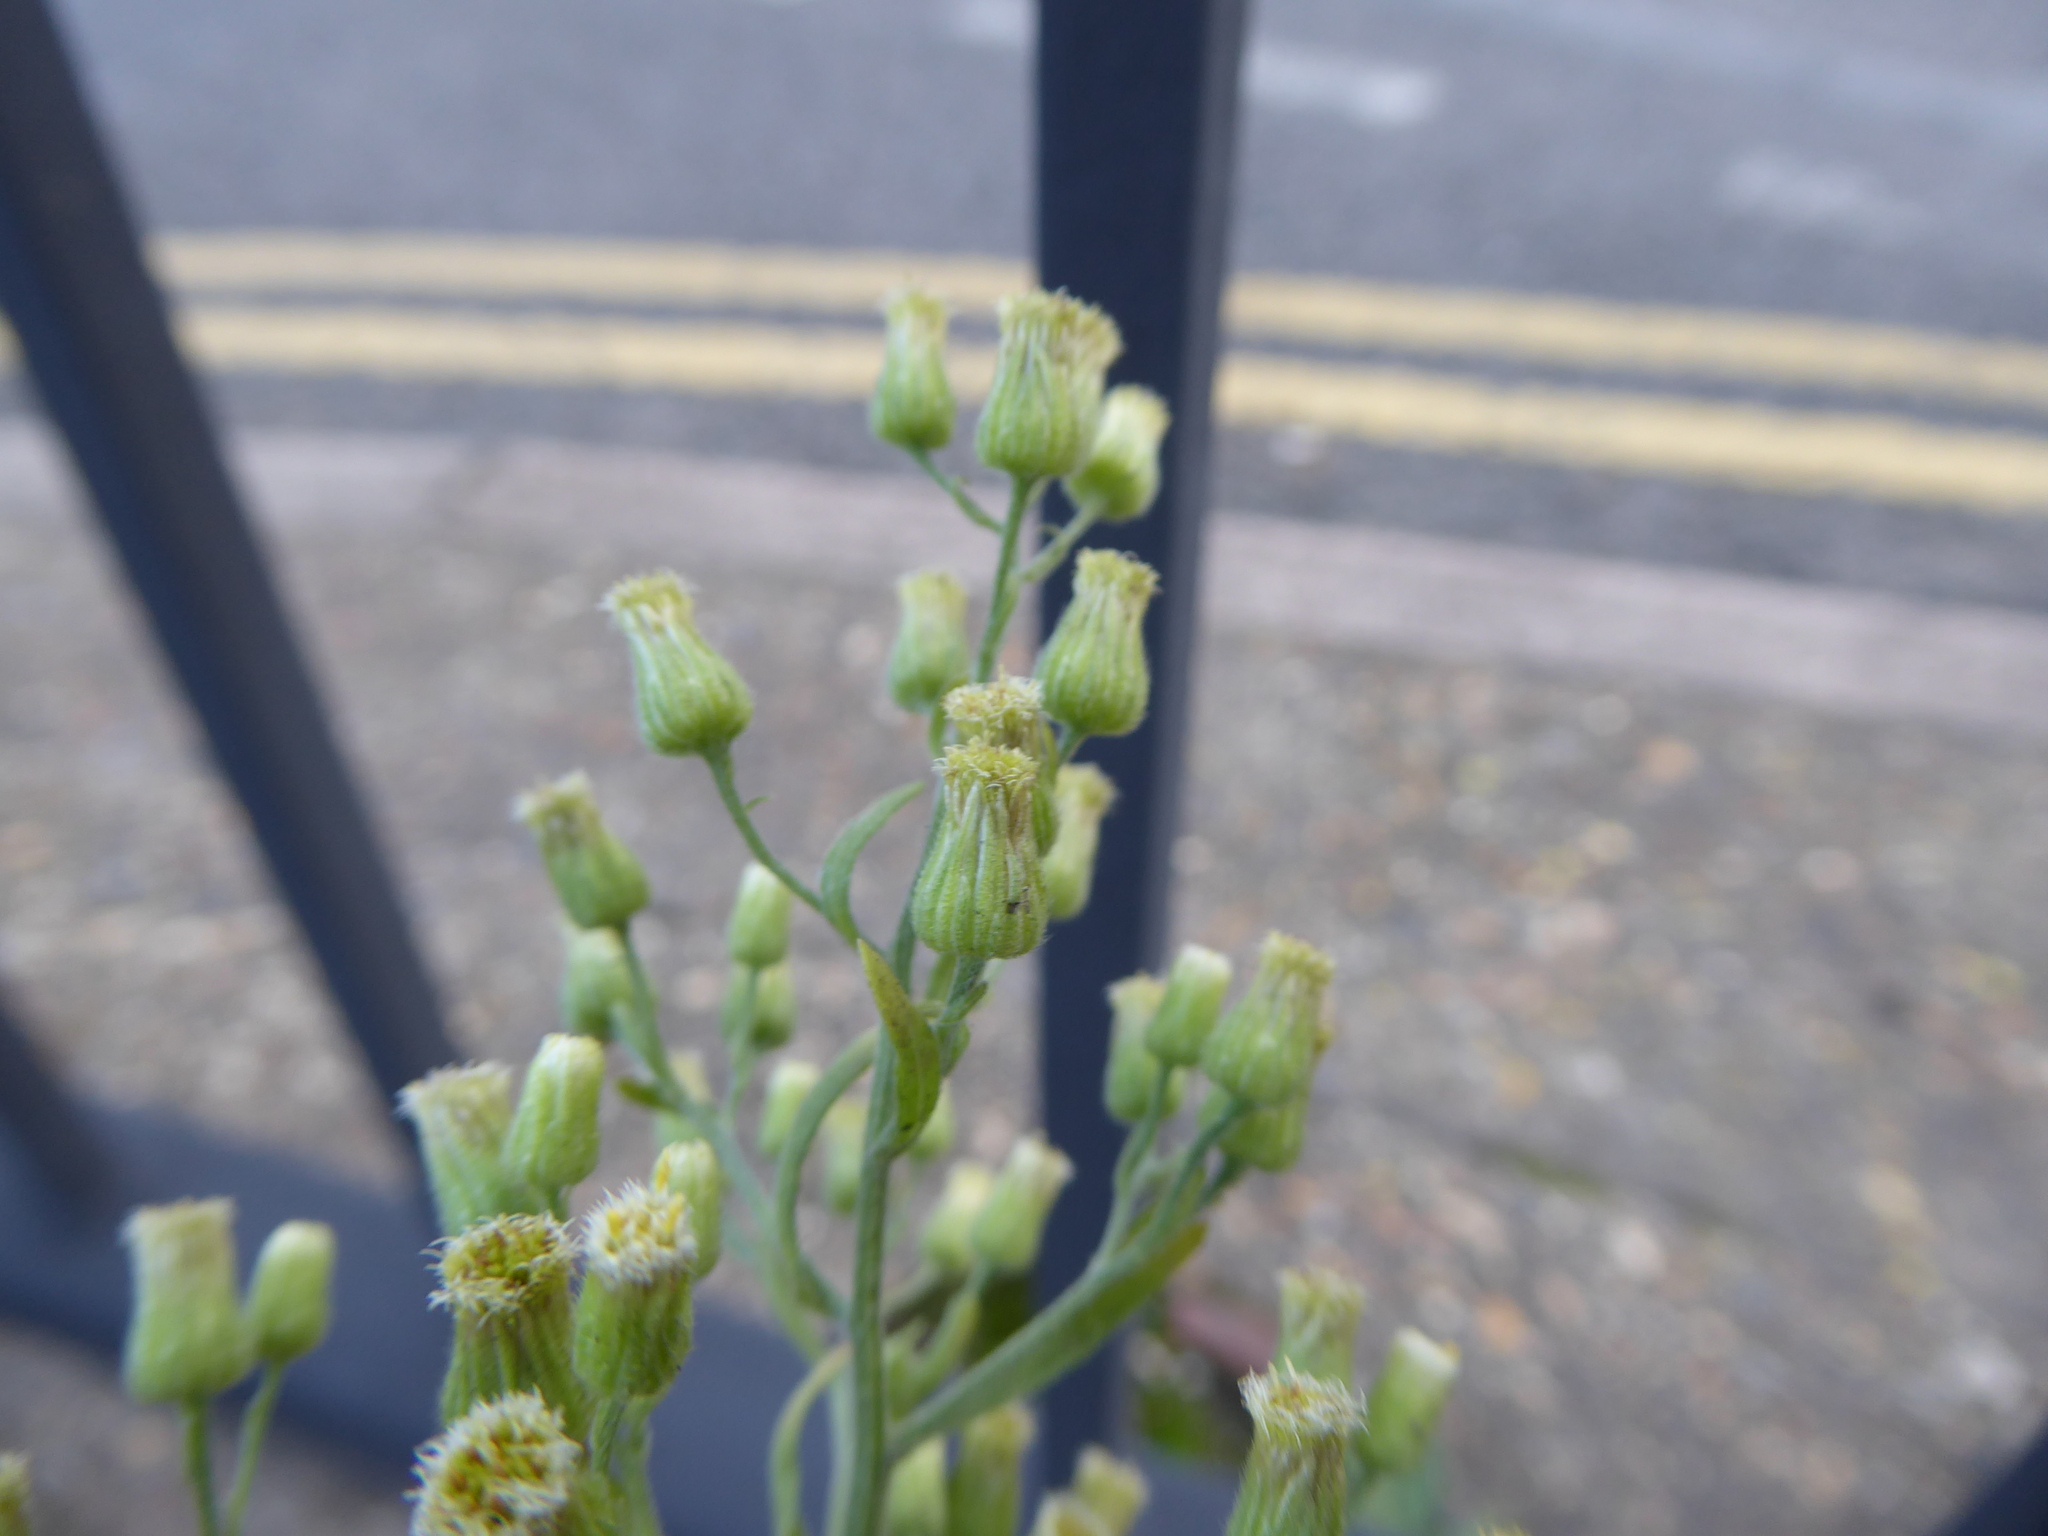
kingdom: Plantae
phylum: Tracheophyta
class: Magnoliopsida
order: Asterales
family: Asteraceae
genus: Erigeron
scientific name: Erigeron sumatrensis
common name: Daisy
